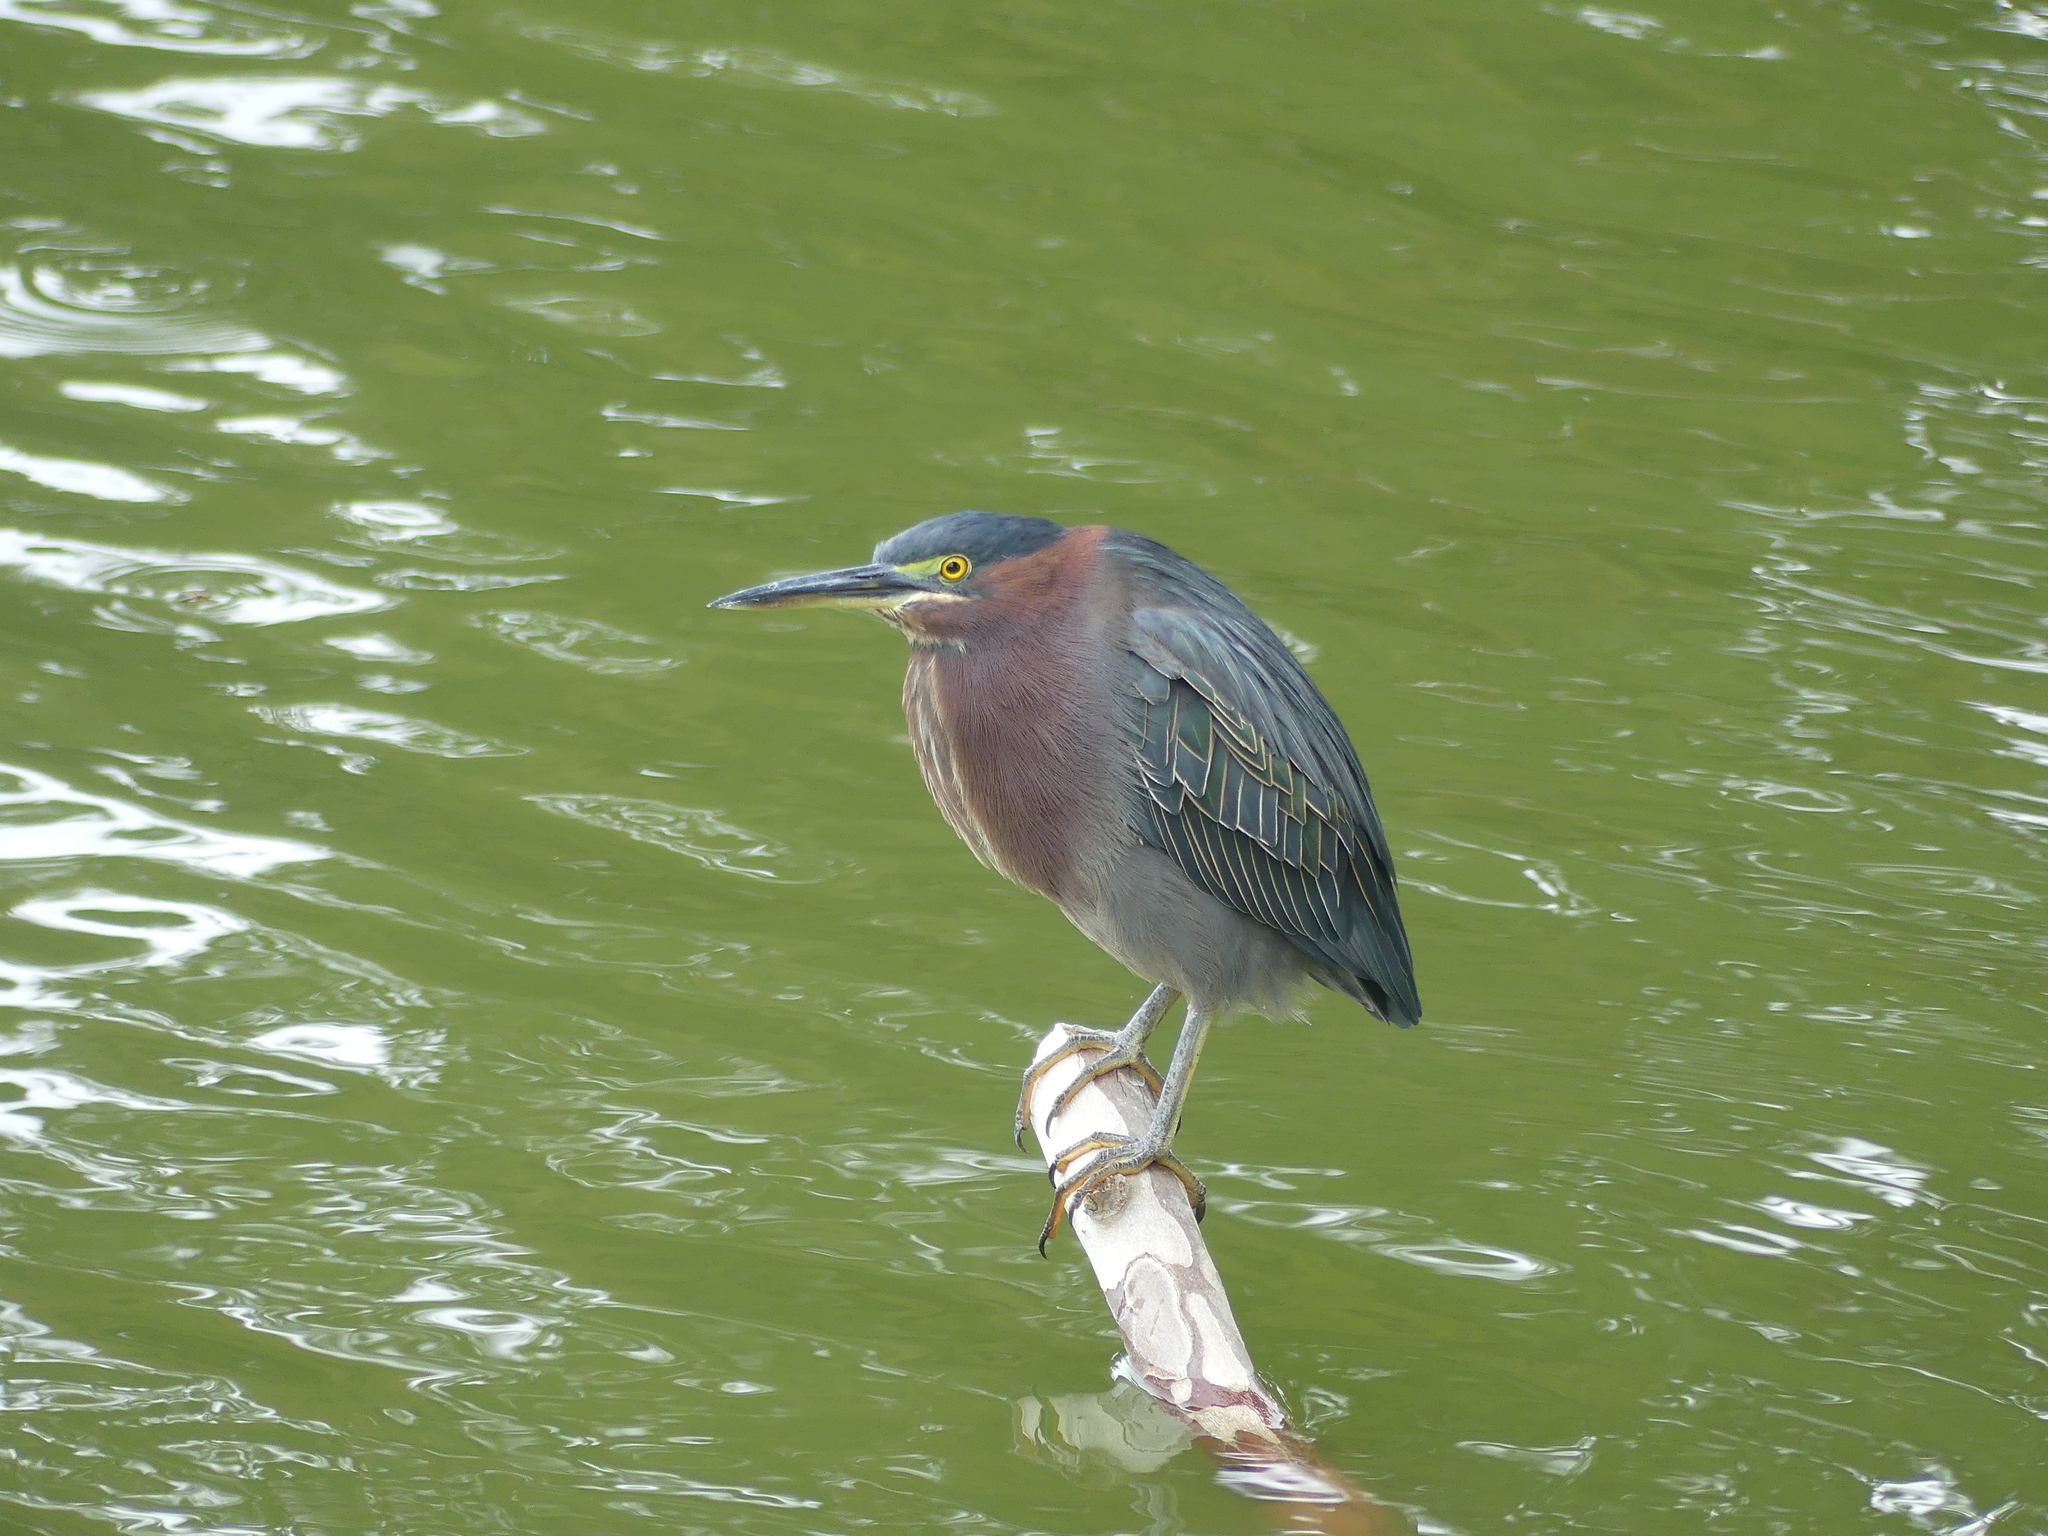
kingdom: Animalia
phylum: Chordata
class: Aves
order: Pelecaniformes
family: Ardeidae
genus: Butorides
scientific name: Butorides virescens
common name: Green heron
